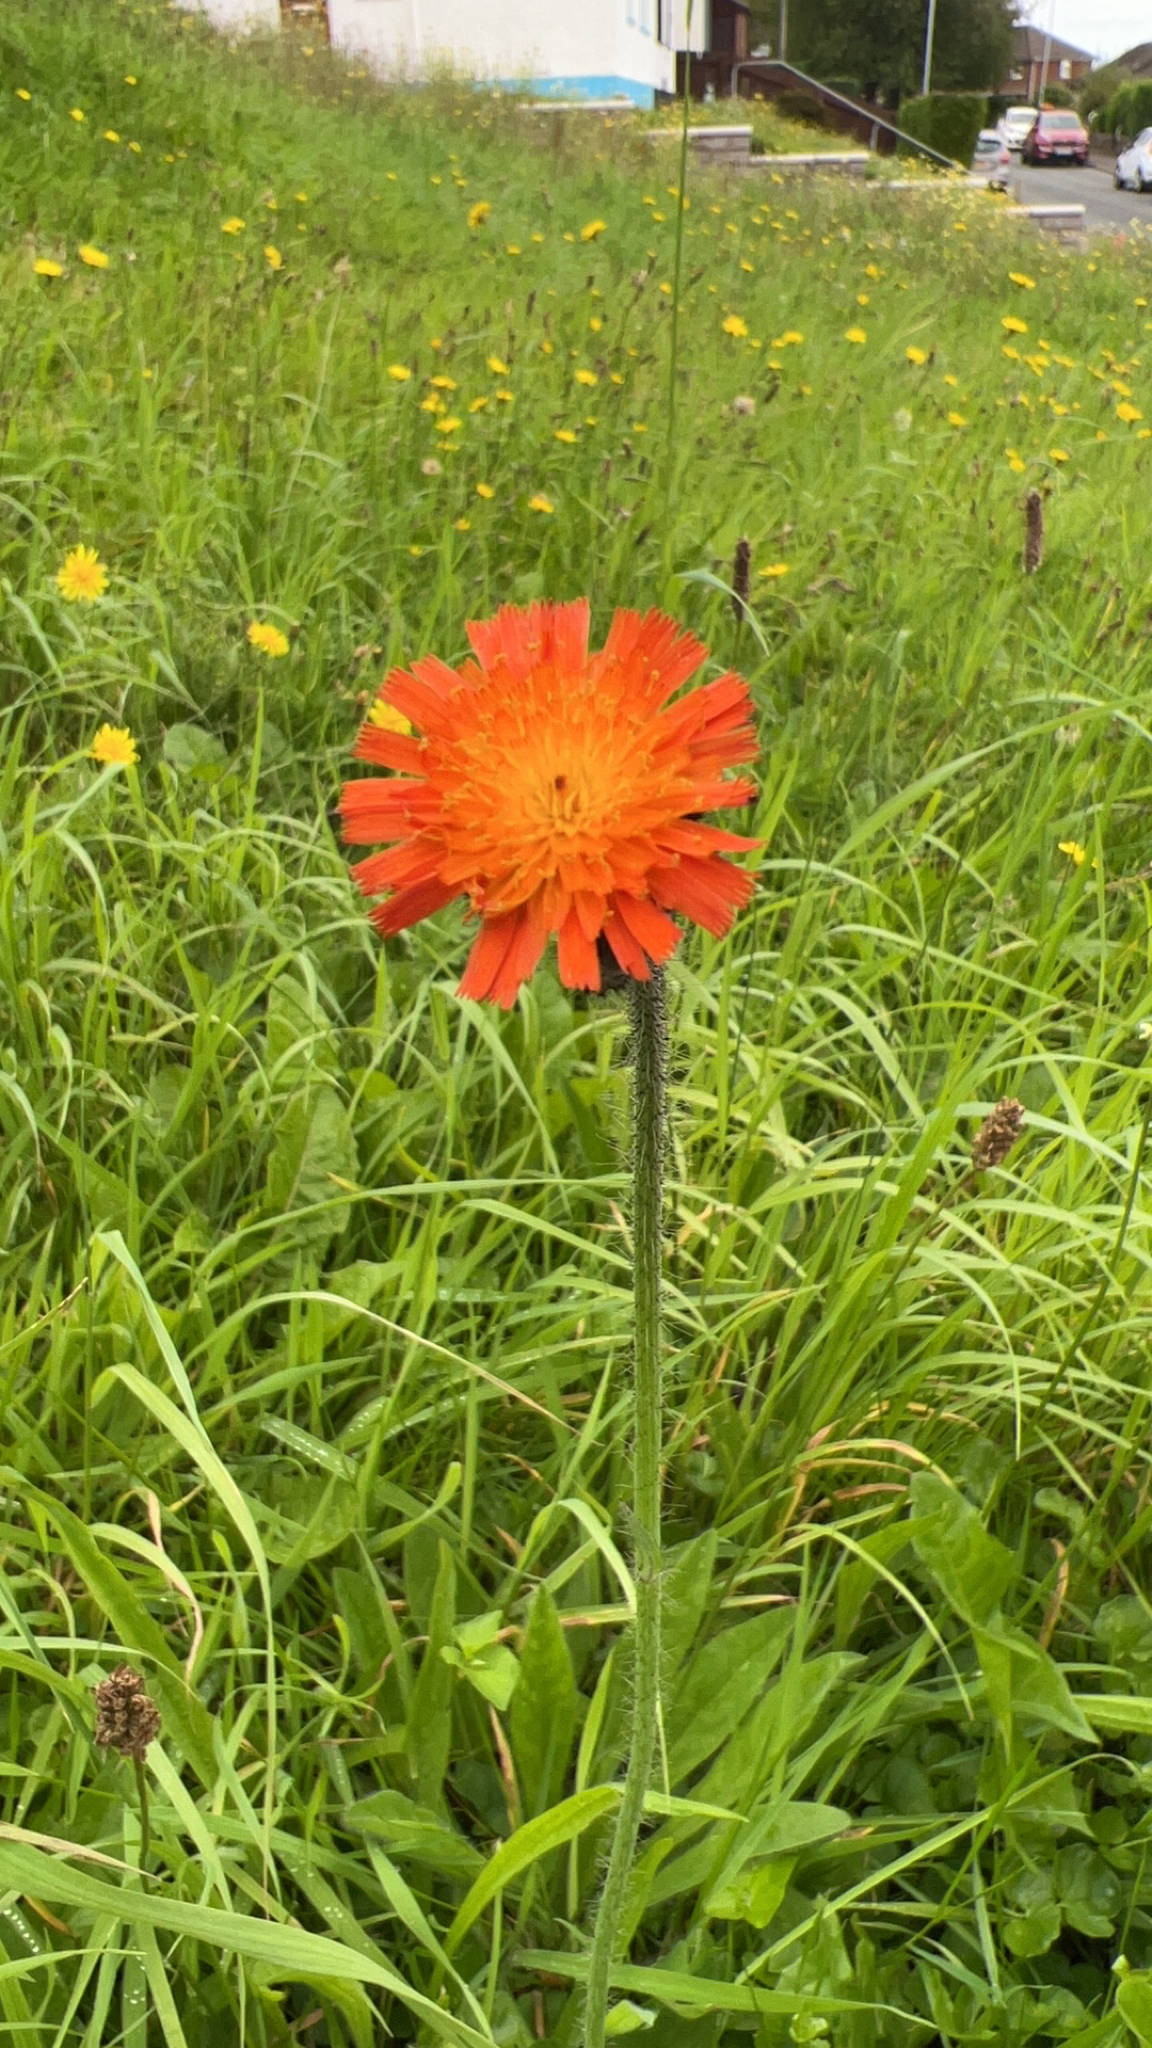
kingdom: Plantae
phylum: Tracheophyta
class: Magnoliopsida
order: Asterales
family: Asteraceae
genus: Pilosella
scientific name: Pilosella aurantiaca
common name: Fox-and-cubs
